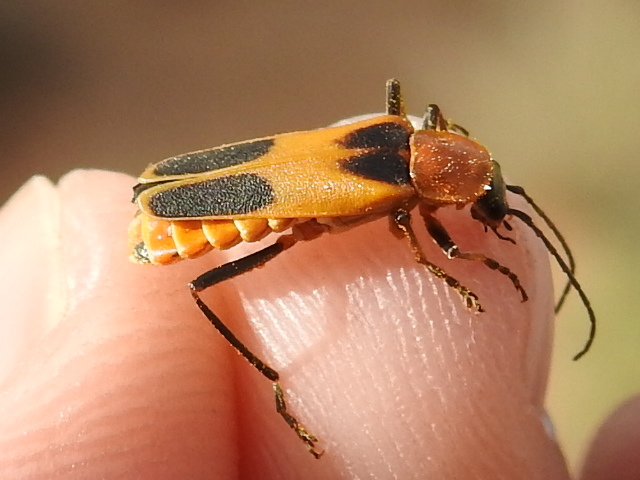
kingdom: Animalia
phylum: Arthropoda
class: Insecta
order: Coleoptera
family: Cantharidae
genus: Chauliognathus
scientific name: Chauliognathus omissus
